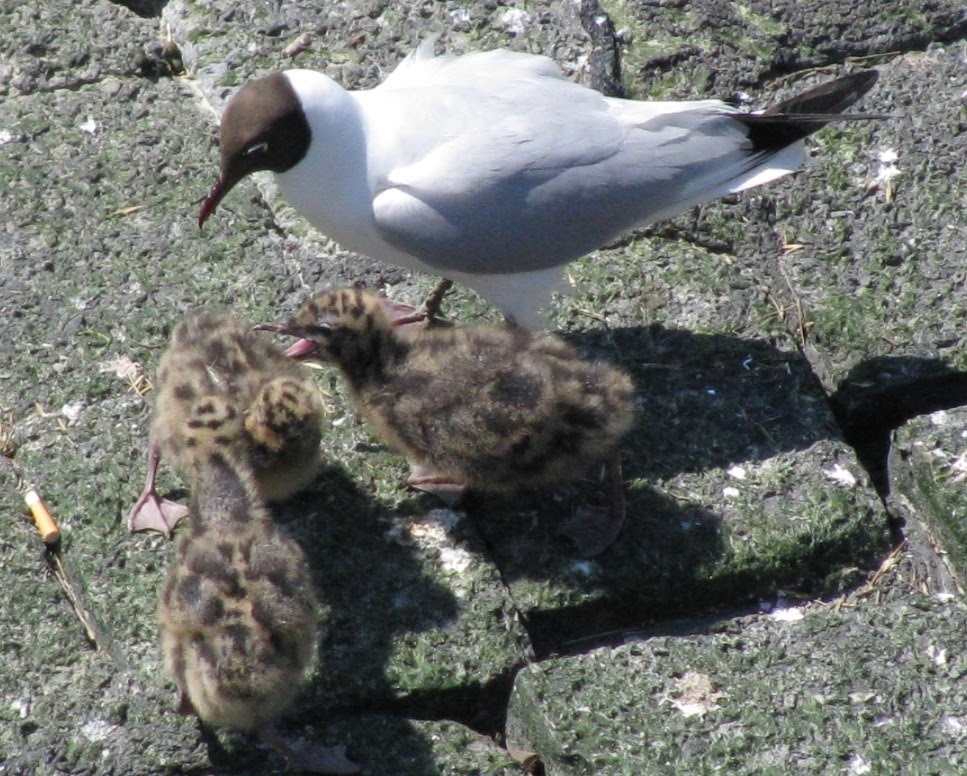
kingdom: Animalia
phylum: Chordata
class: Aves
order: Charadriiformes
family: Laridae
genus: Chroicocephalus
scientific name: Chroicocephalus ridibundus
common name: Black-headed gull
